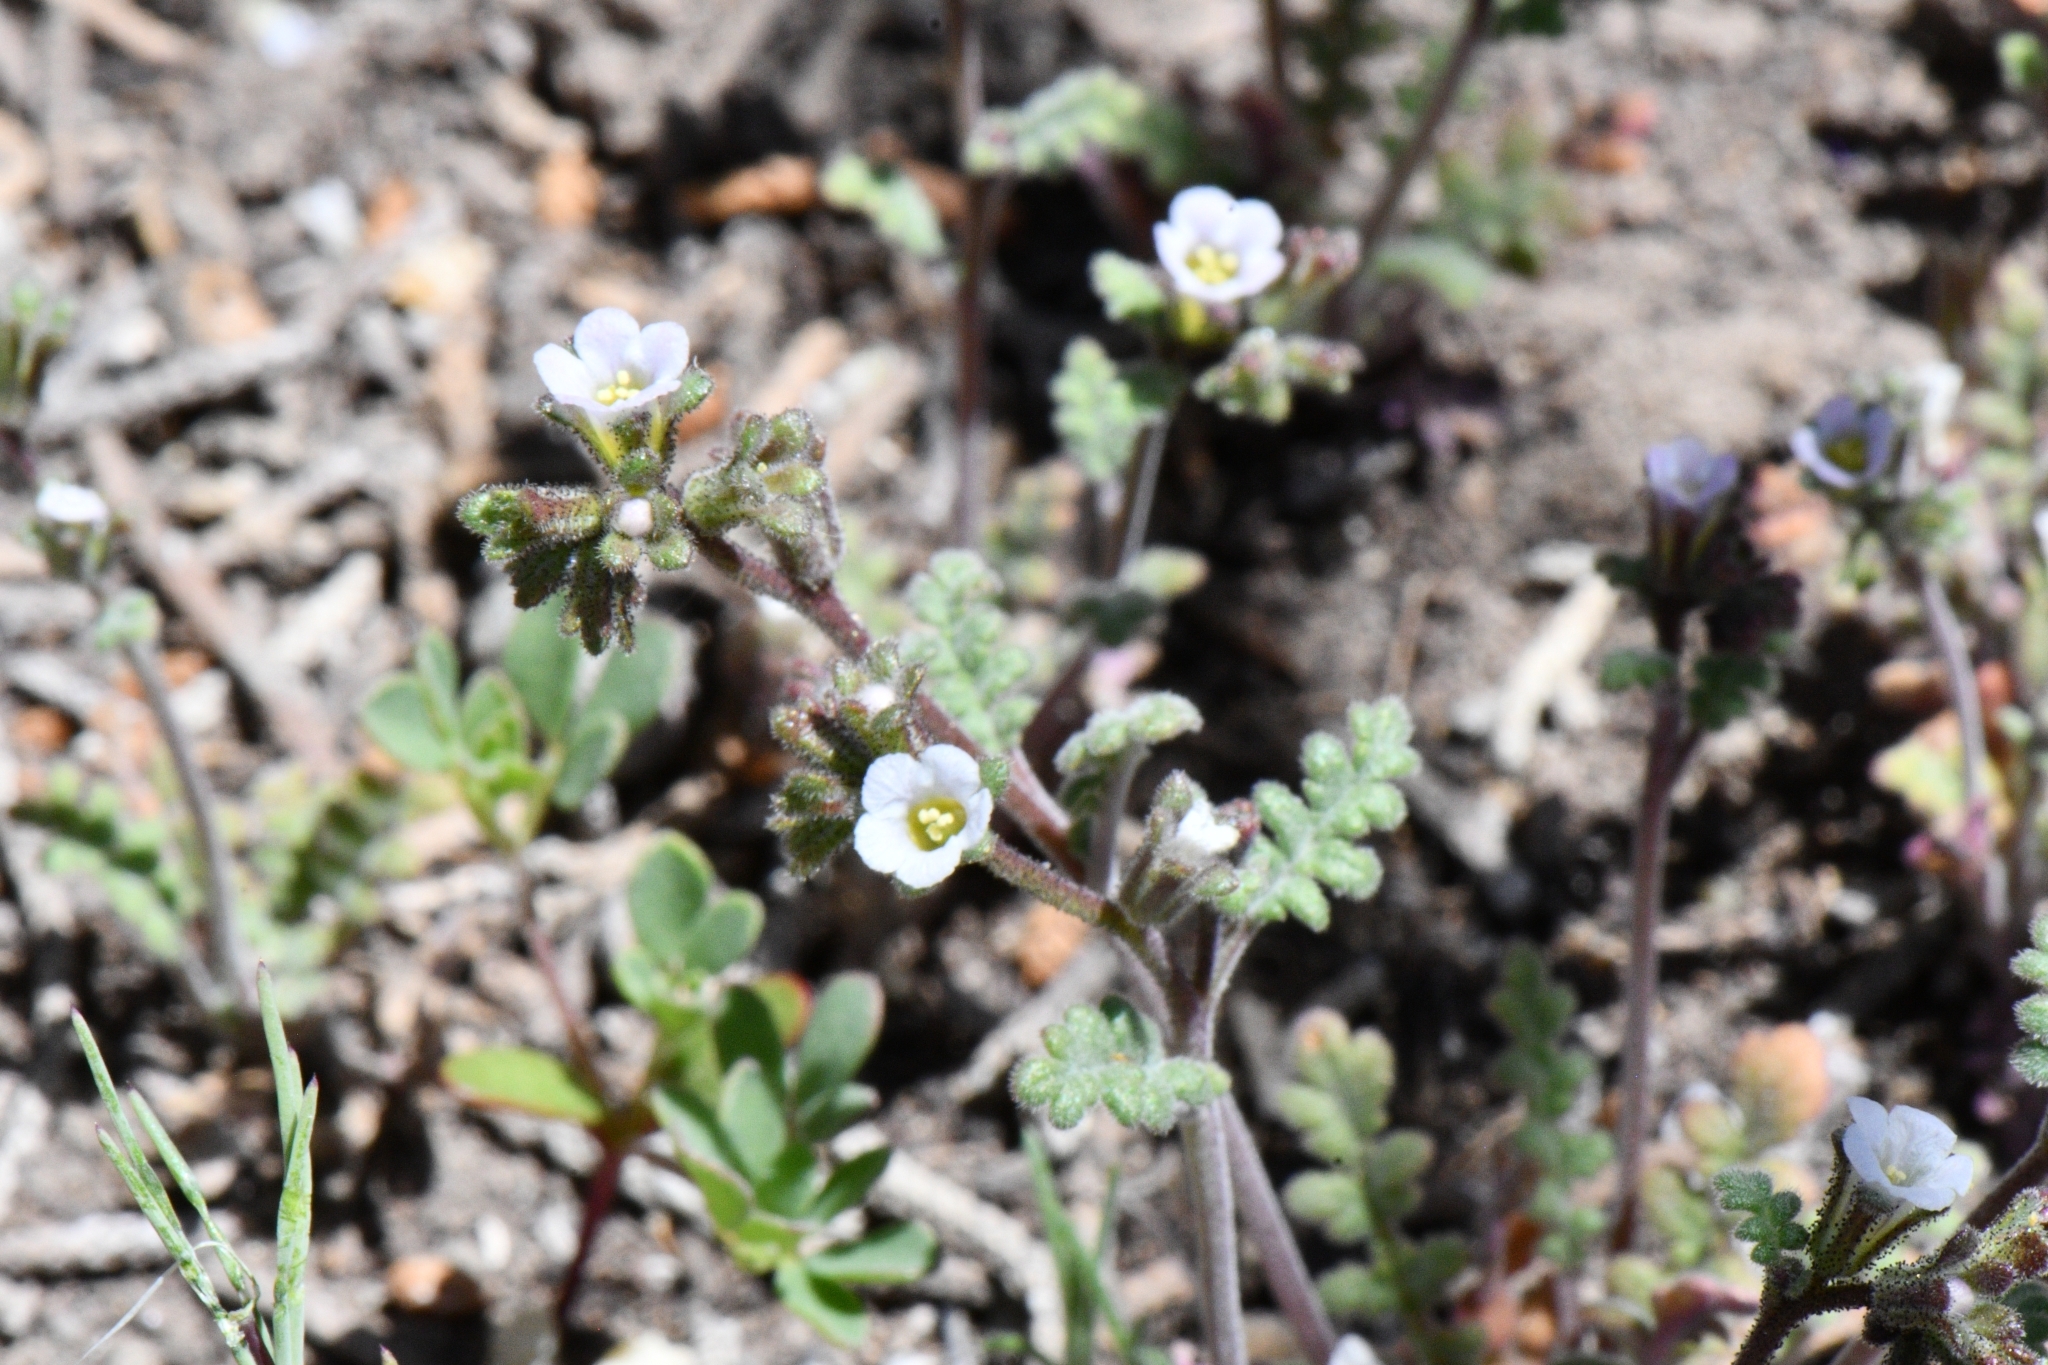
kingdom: Plantae
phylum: Tracheophyta
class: Magnoliopsida
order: Boraginales
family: Hydrophyllaceae
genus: Phacelia
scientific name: Phacelia affinis
